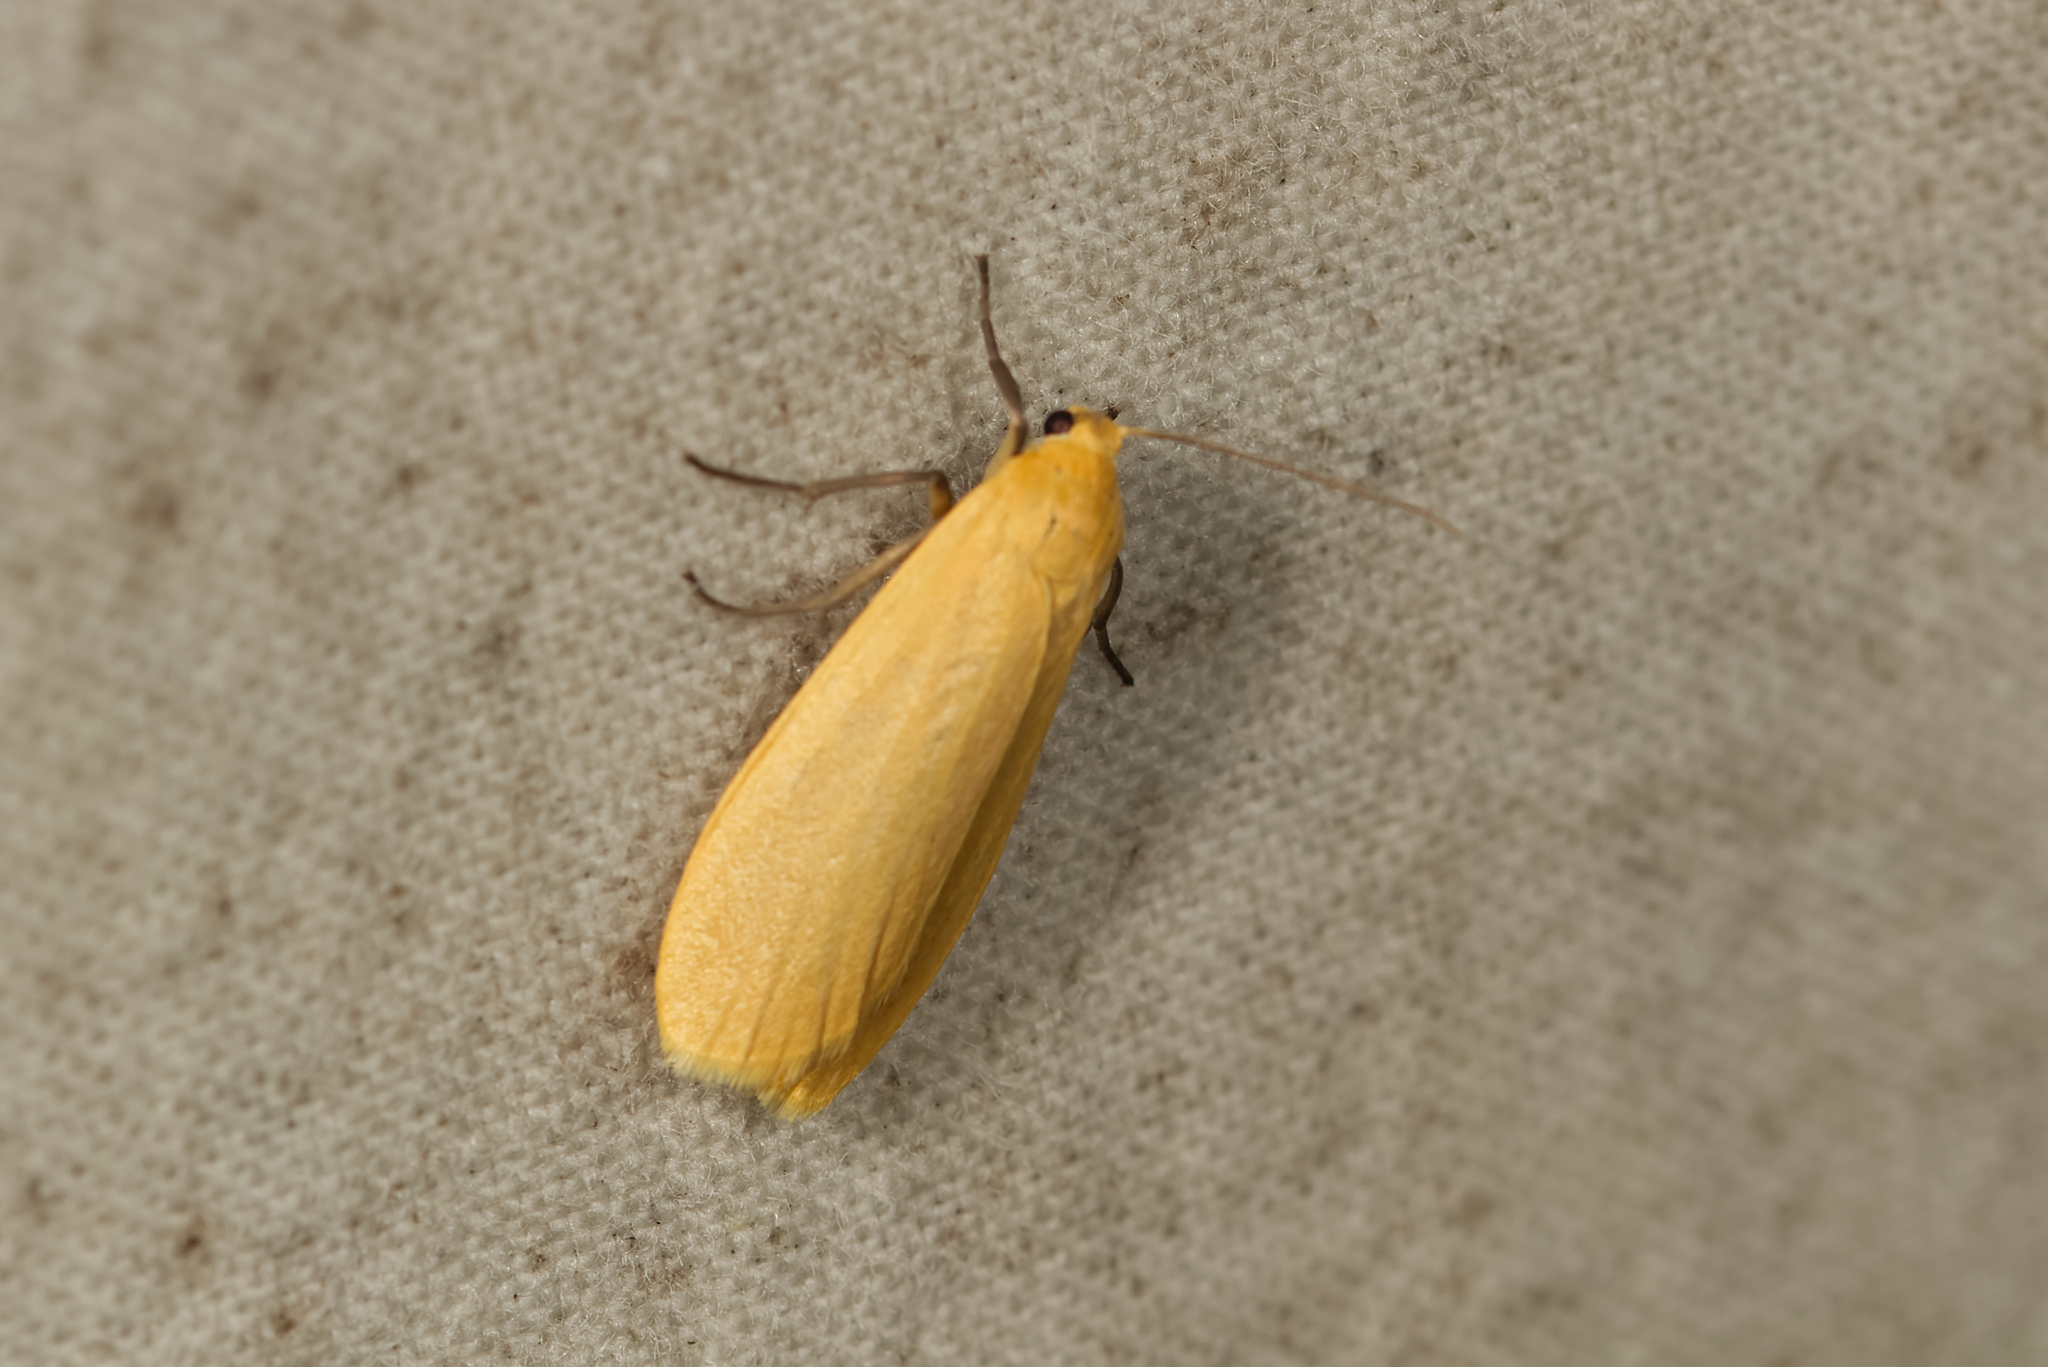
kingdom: Animalia
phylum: Arthropoda
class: Insecta
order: Lepidoptera
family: Erebidae
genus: Wittia
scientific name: Wittia sororcula
